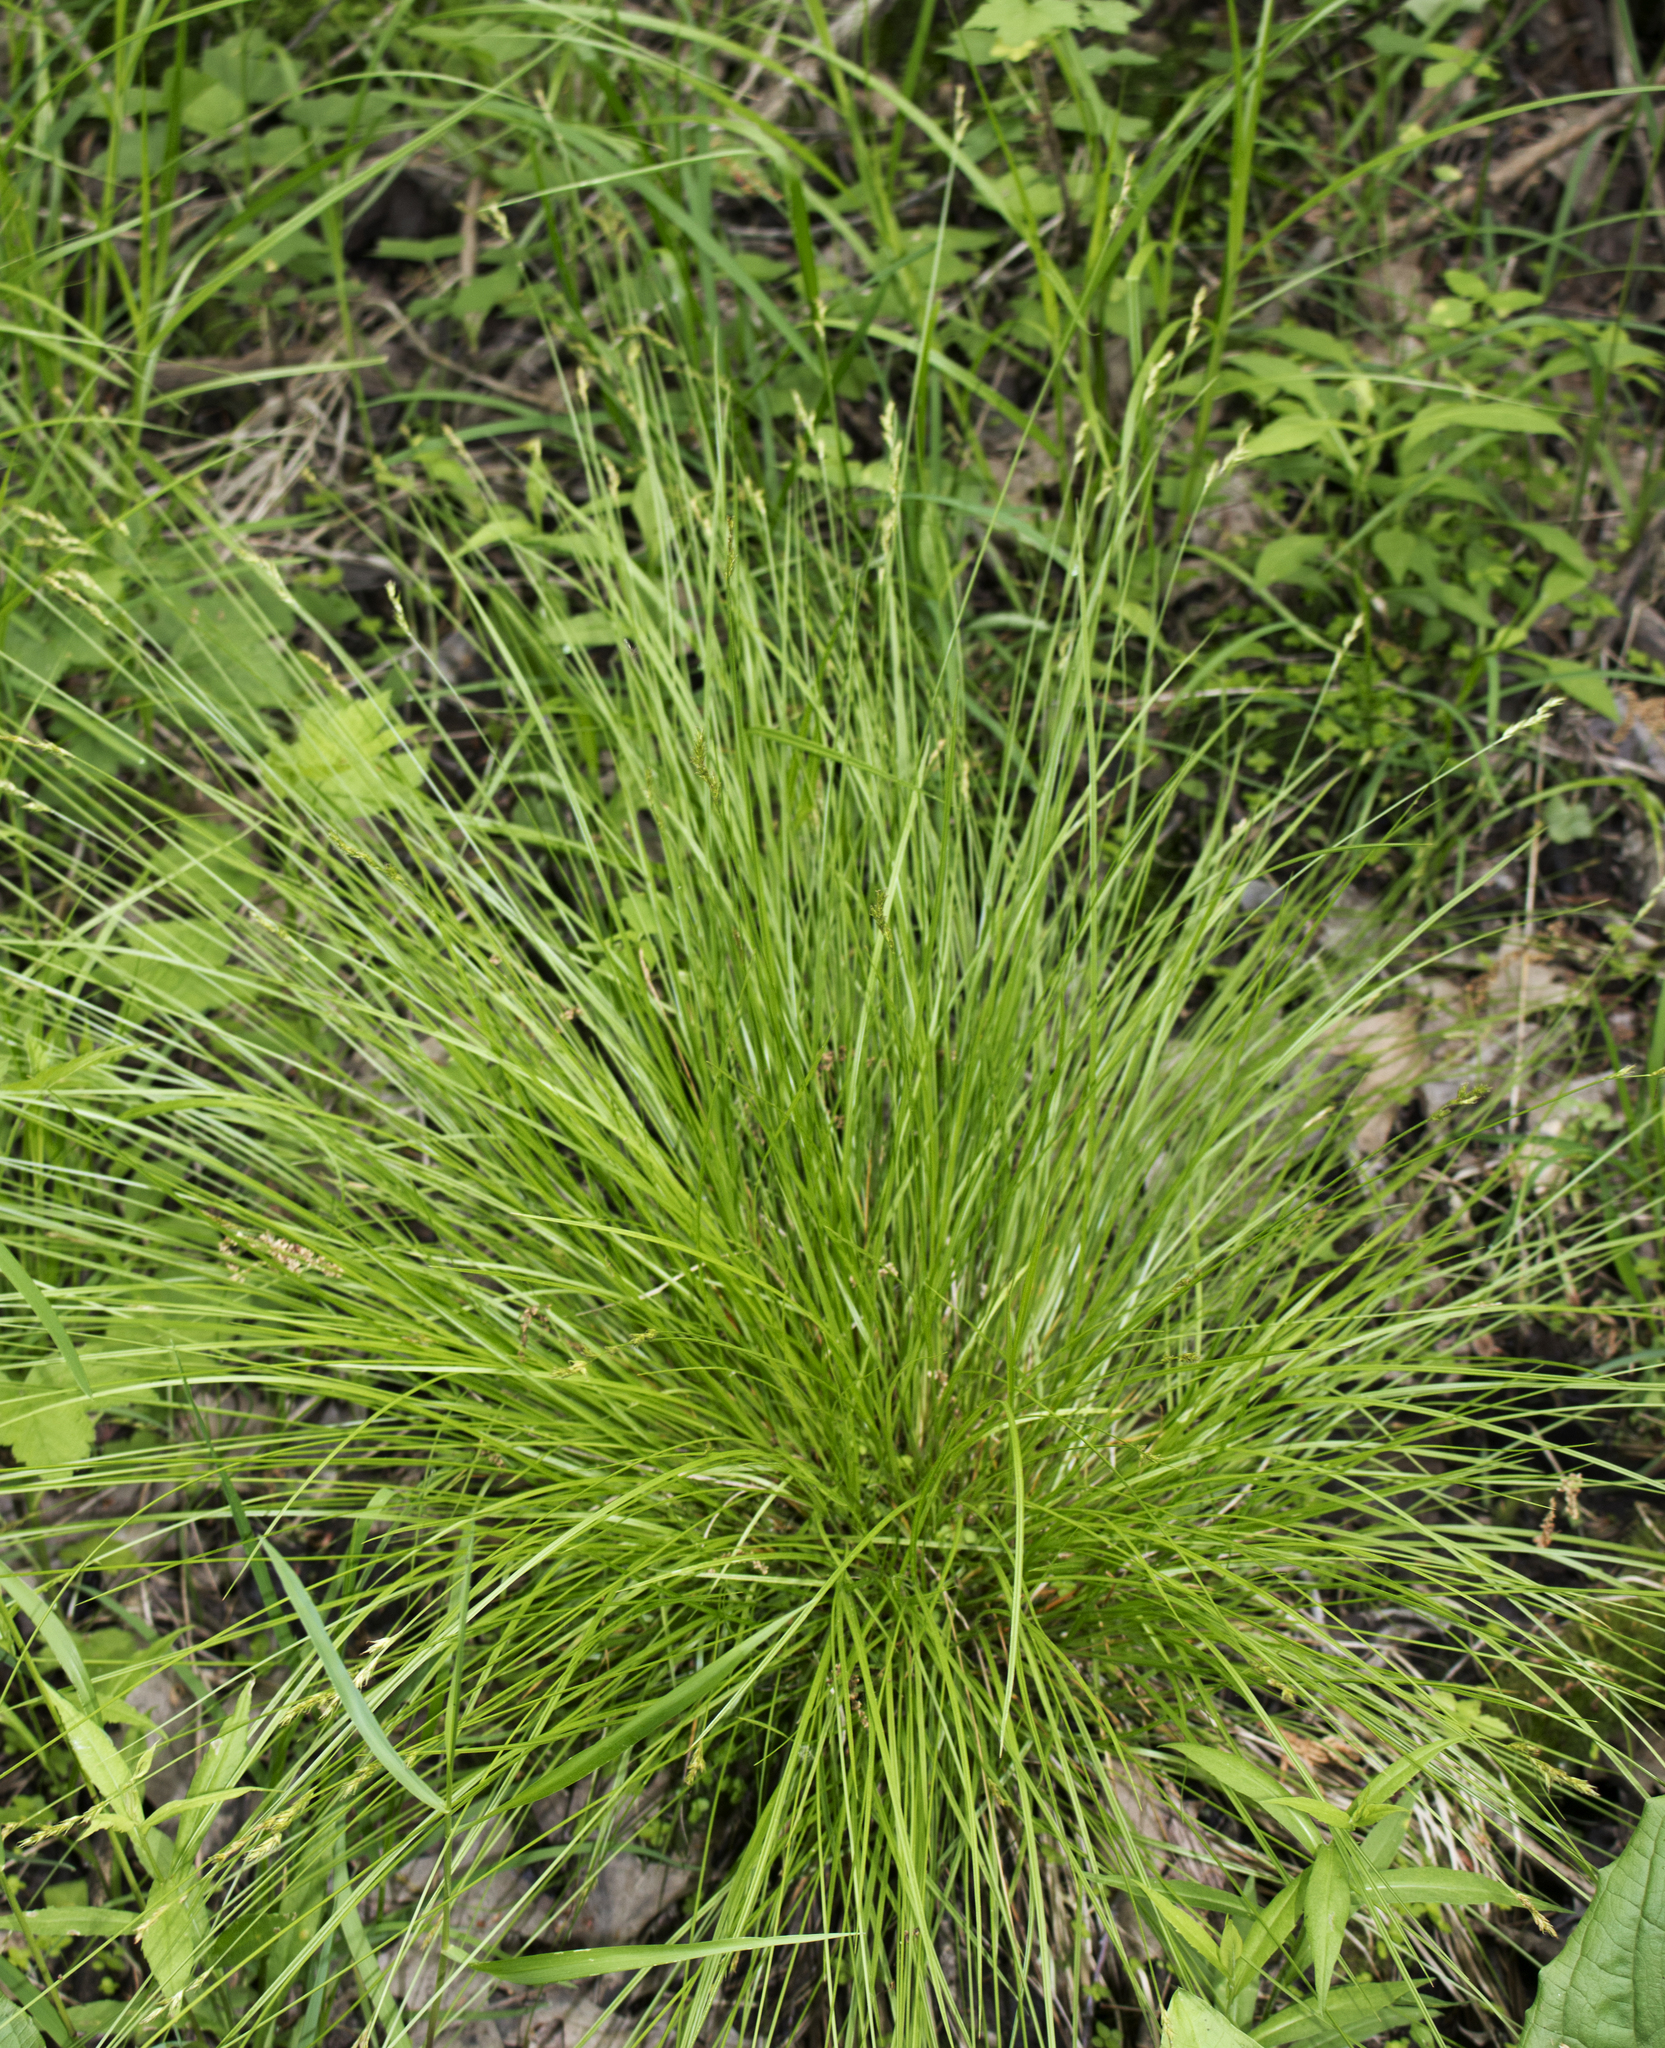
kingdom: Plantae
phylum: Tracheophyta
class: Liliopsida
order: Poales
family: Cyperaceae
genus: Carex
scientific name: Carex bromoides
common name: Brome hummock sedge
